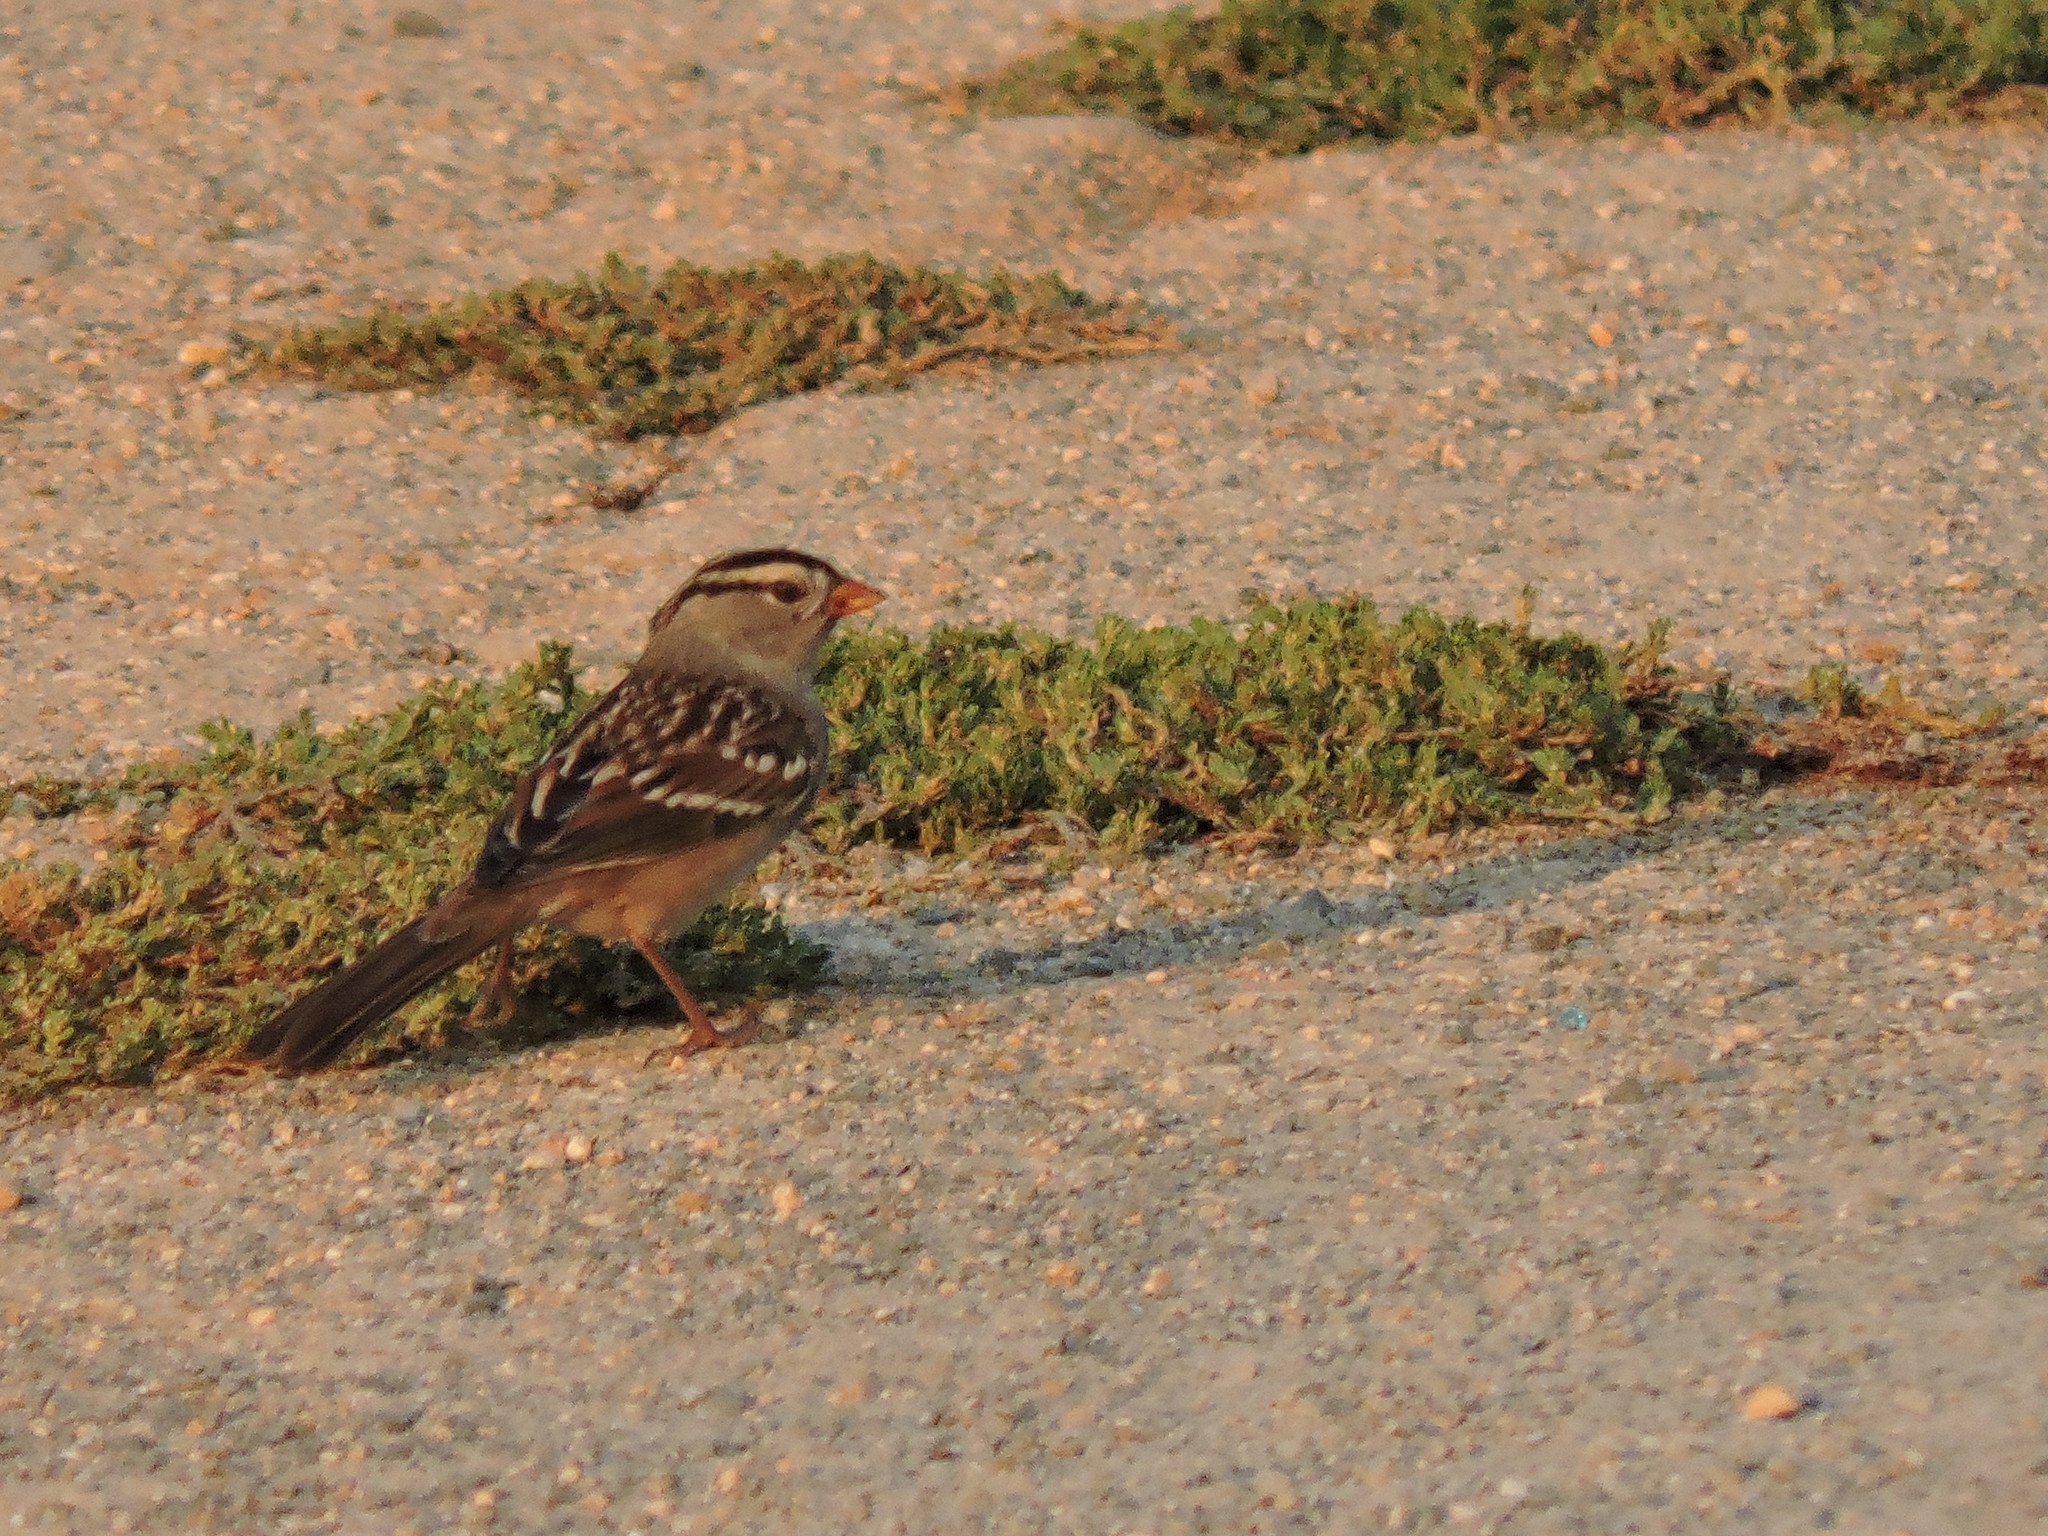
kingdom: Animalia
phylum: Chordata
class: Aves
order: Passeriformes
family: Passerellidae
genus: Zonotrichia
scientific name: Zonotrichia leucophrys
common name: White-crowned sparrow
